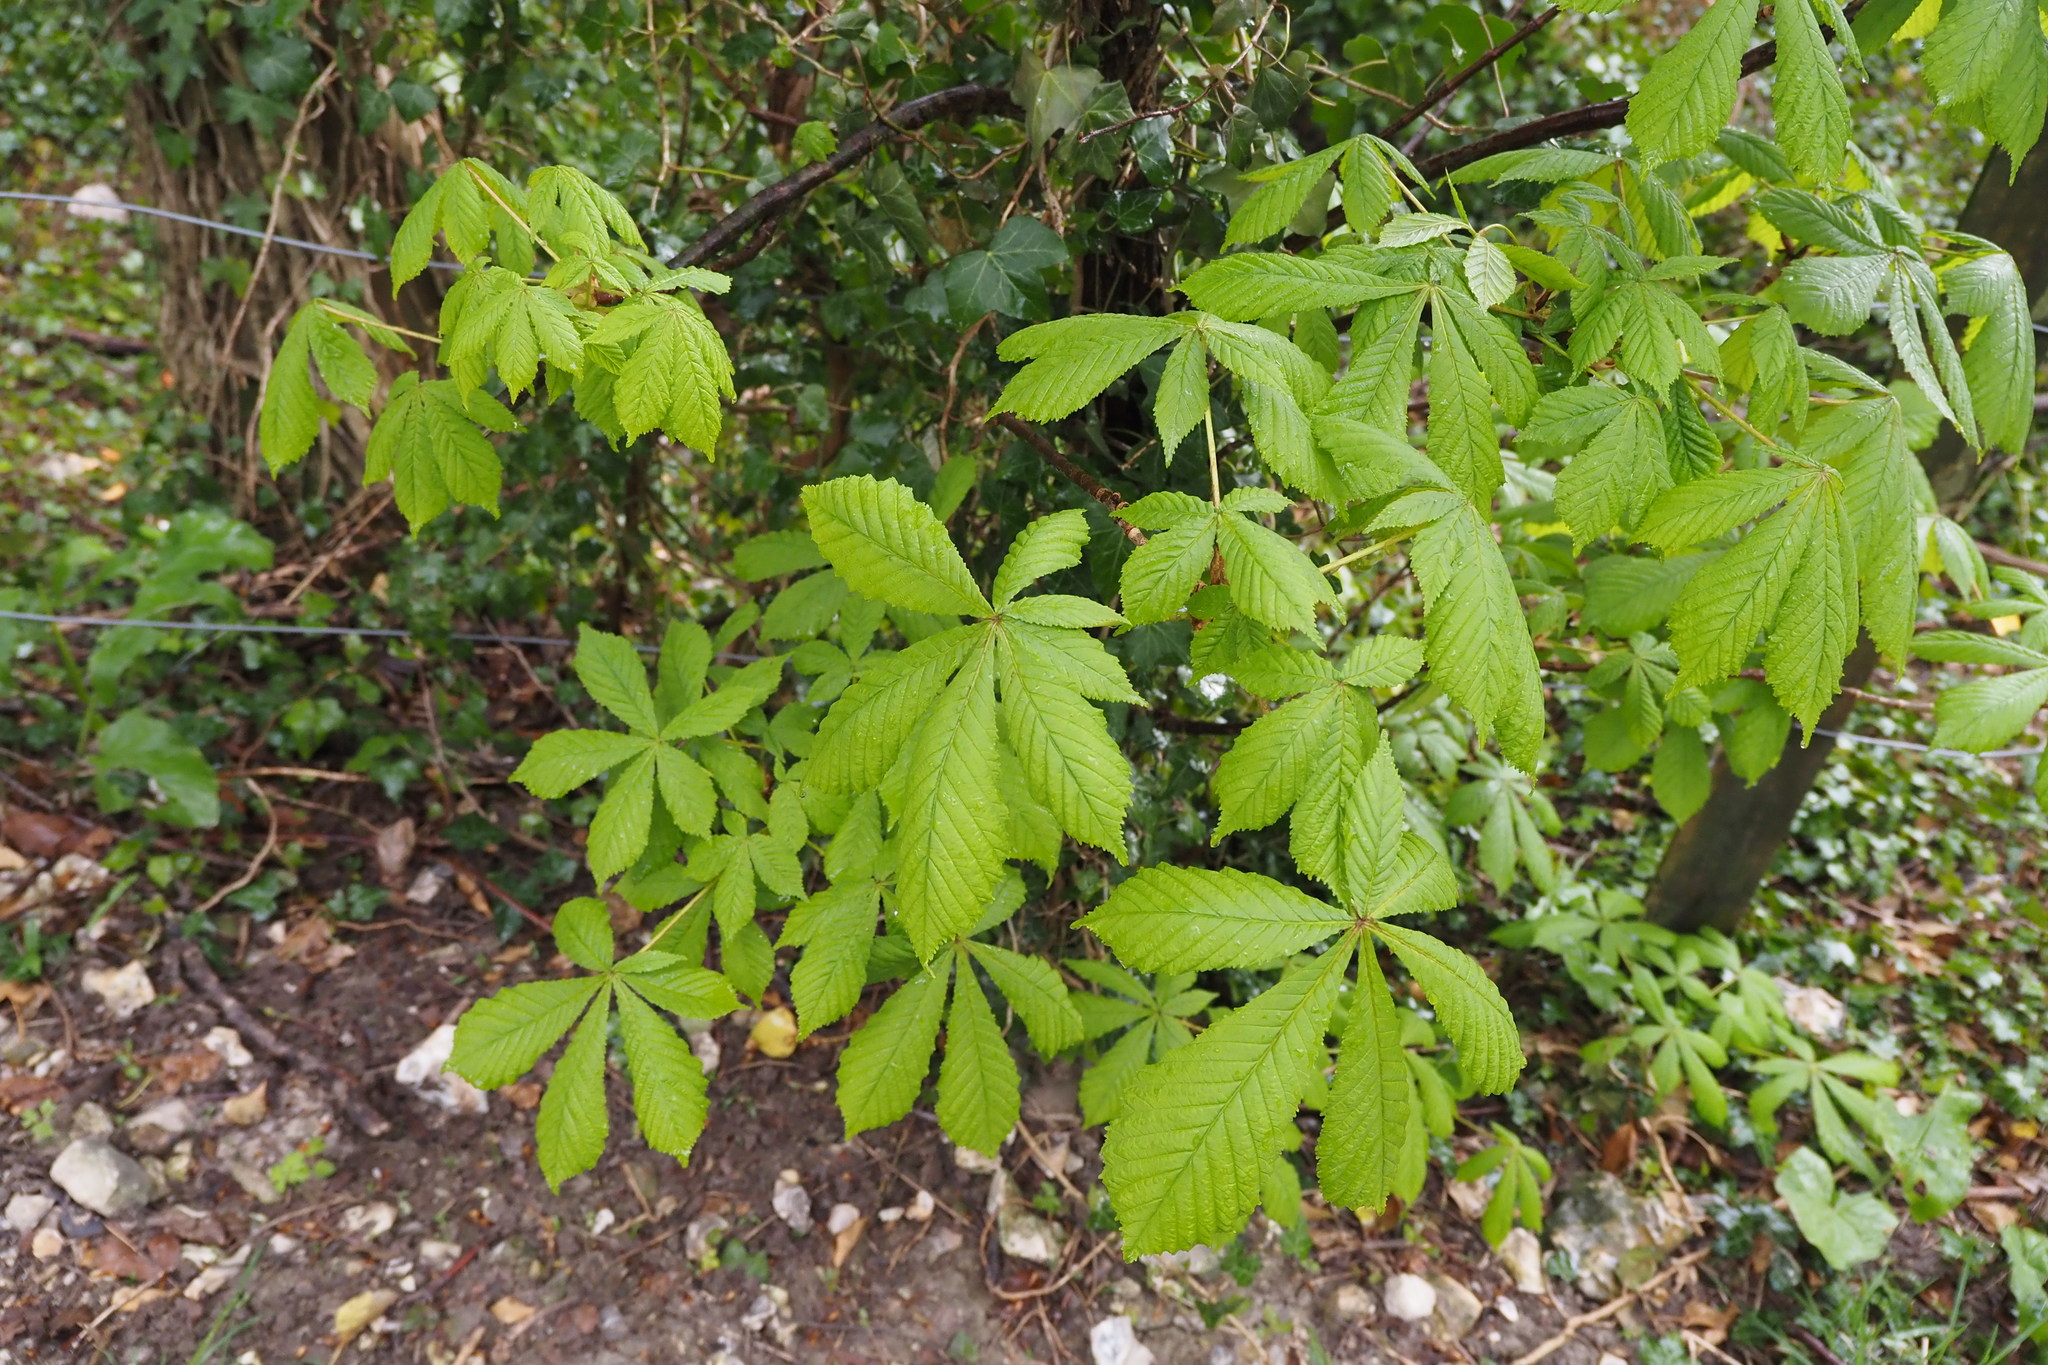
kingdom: Plantae
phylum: Tracheophyta
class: Magnoliopsida
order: Sapindales
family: Sapindaceae
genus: Aesculus
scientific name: Aesculus hippocastanum
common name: Horse-chestnut
